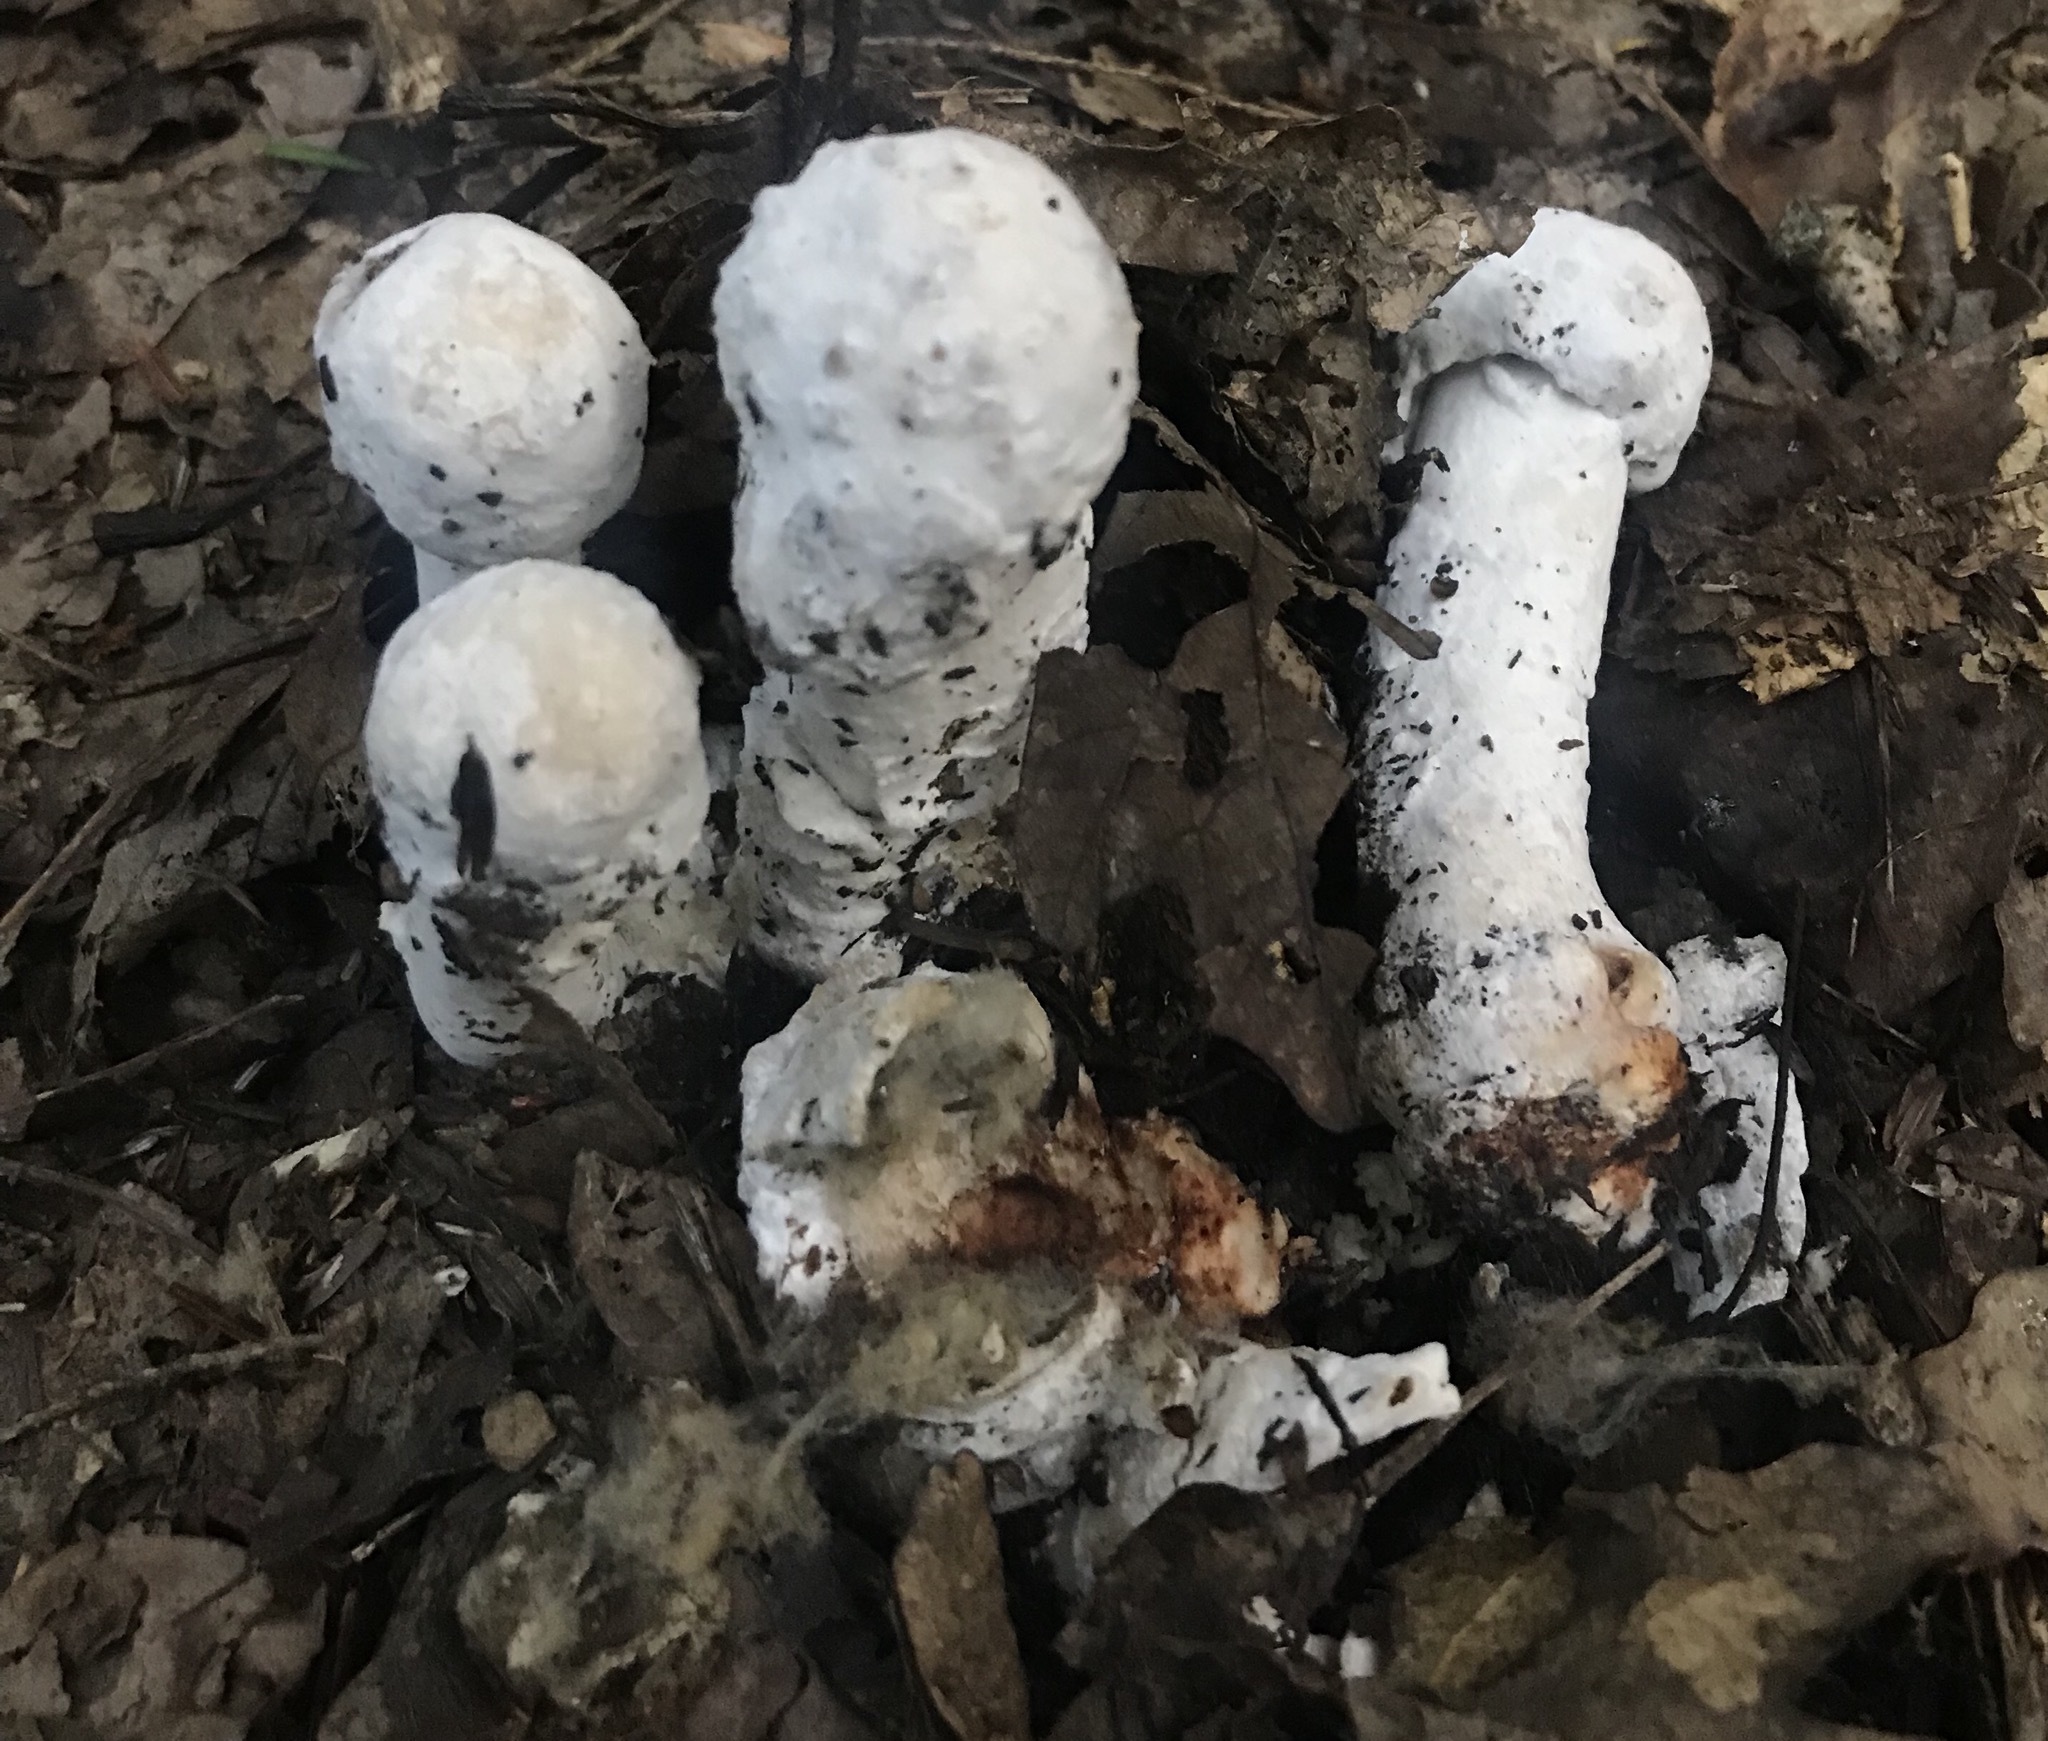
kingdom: Fungi
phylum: Ascomycota
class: Sordariomycetes
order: Hypocreales
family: Hypocreaceae
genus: Hypomyces
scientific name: Hypomyces hyalinus
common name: Amanita mold
